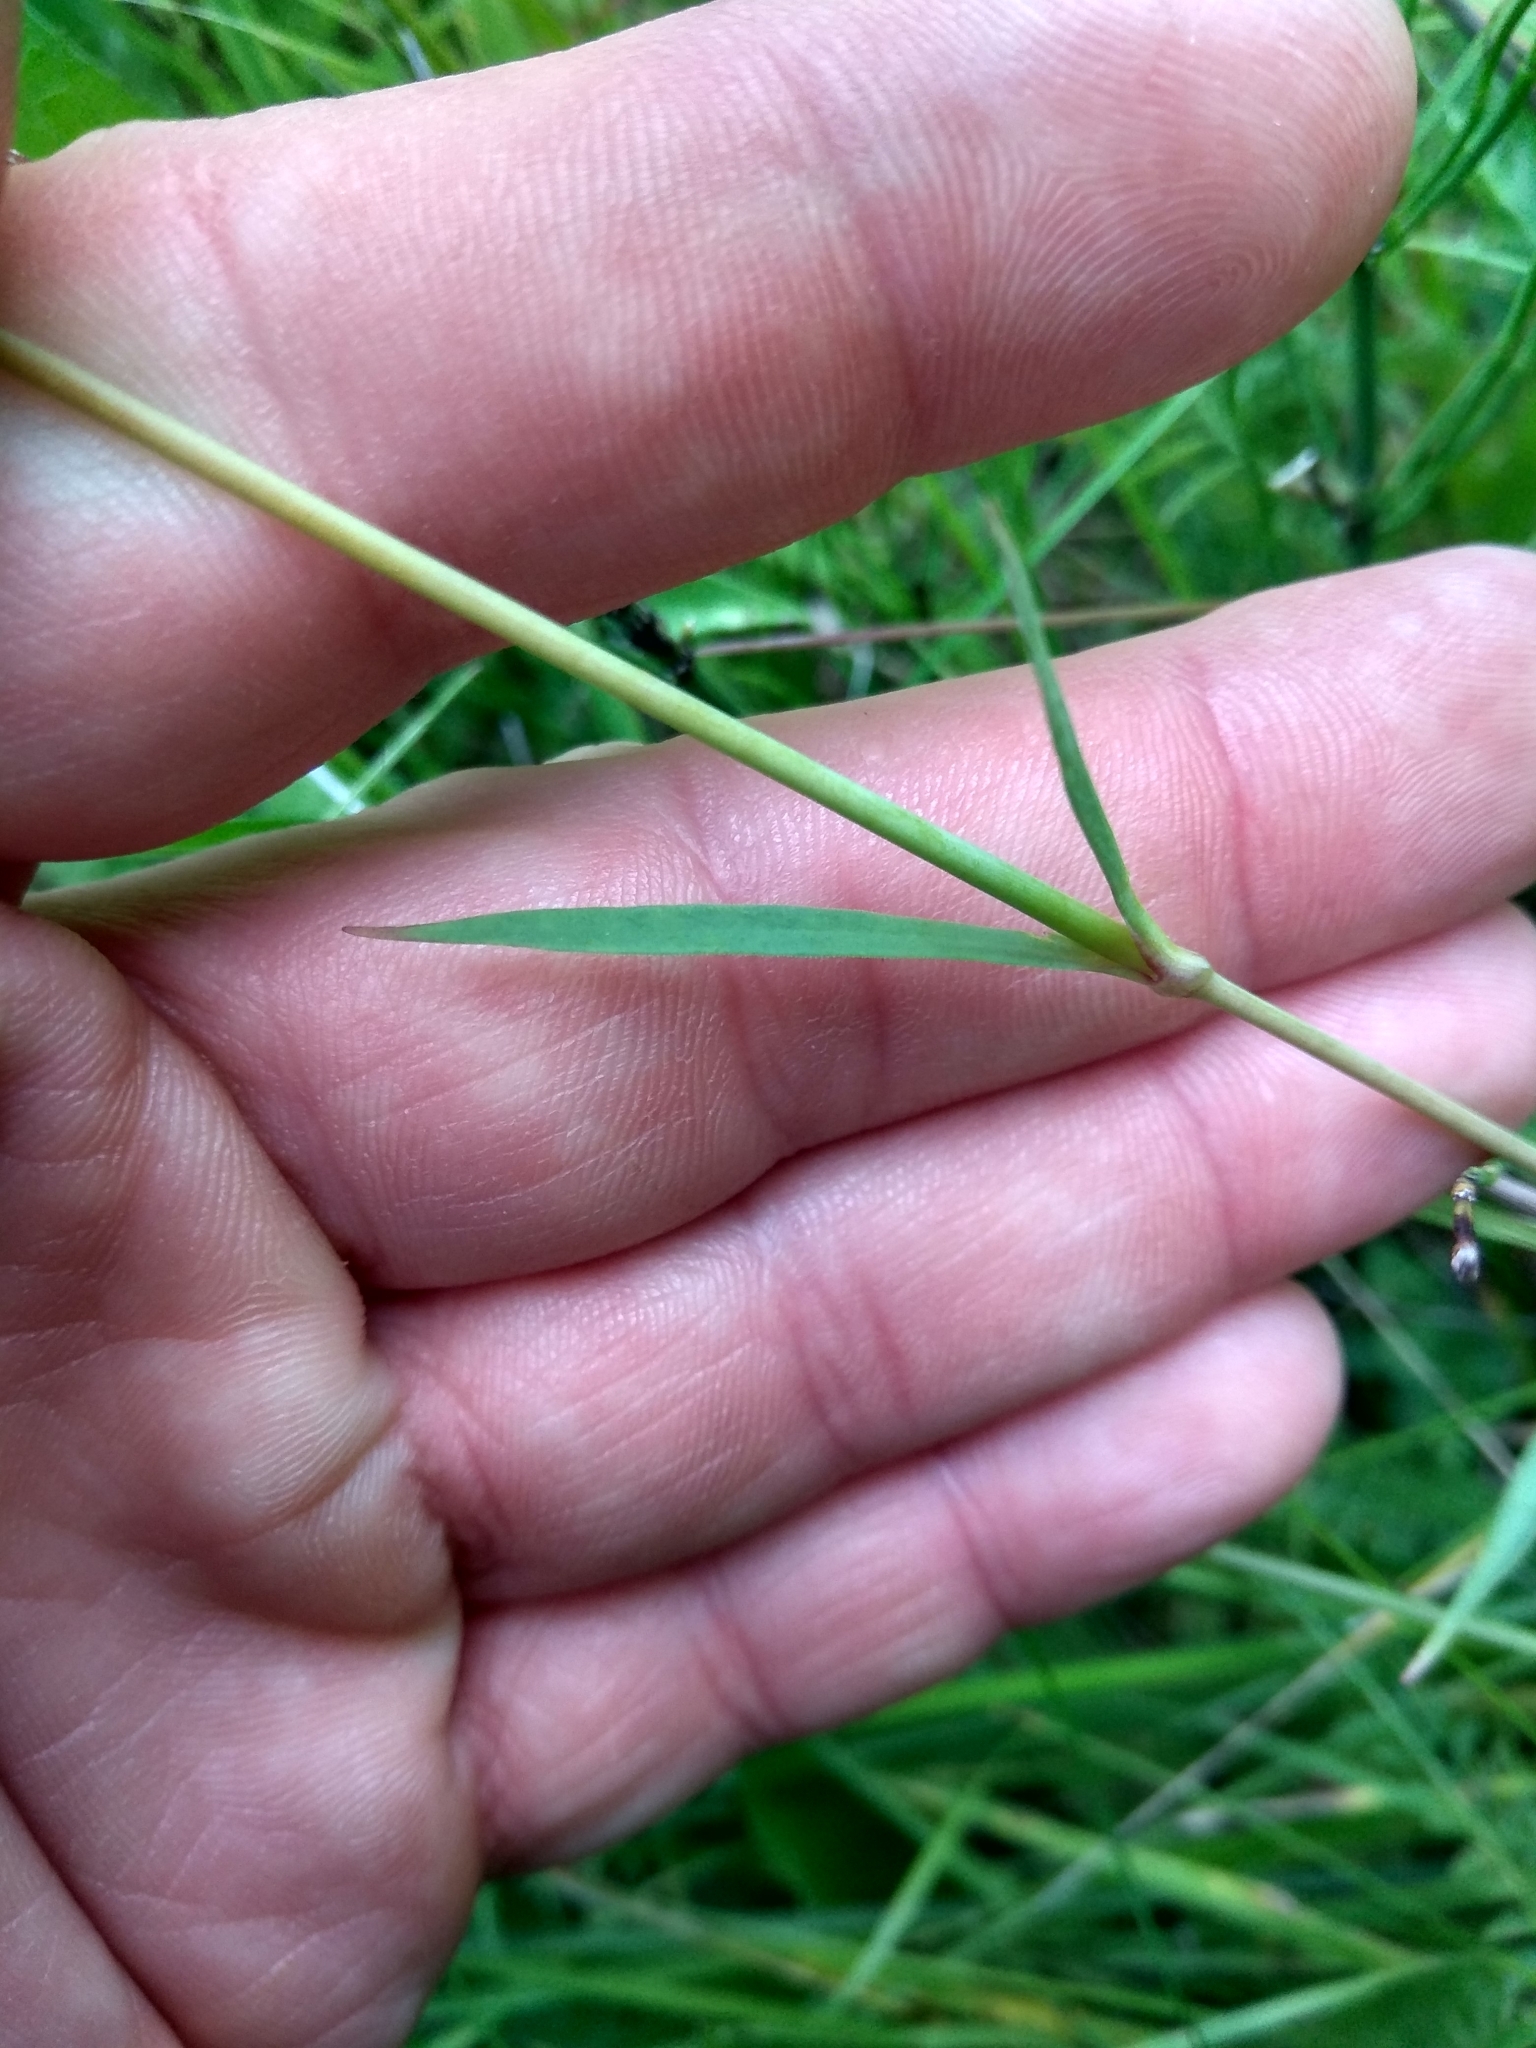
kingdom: Plantae
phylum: Tracheophyta
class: Magnoliopsida
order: Caryophyllales
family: Caryophyllaceae
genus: Dianthus
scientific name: Dianthus superbus
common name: Fringed pink
